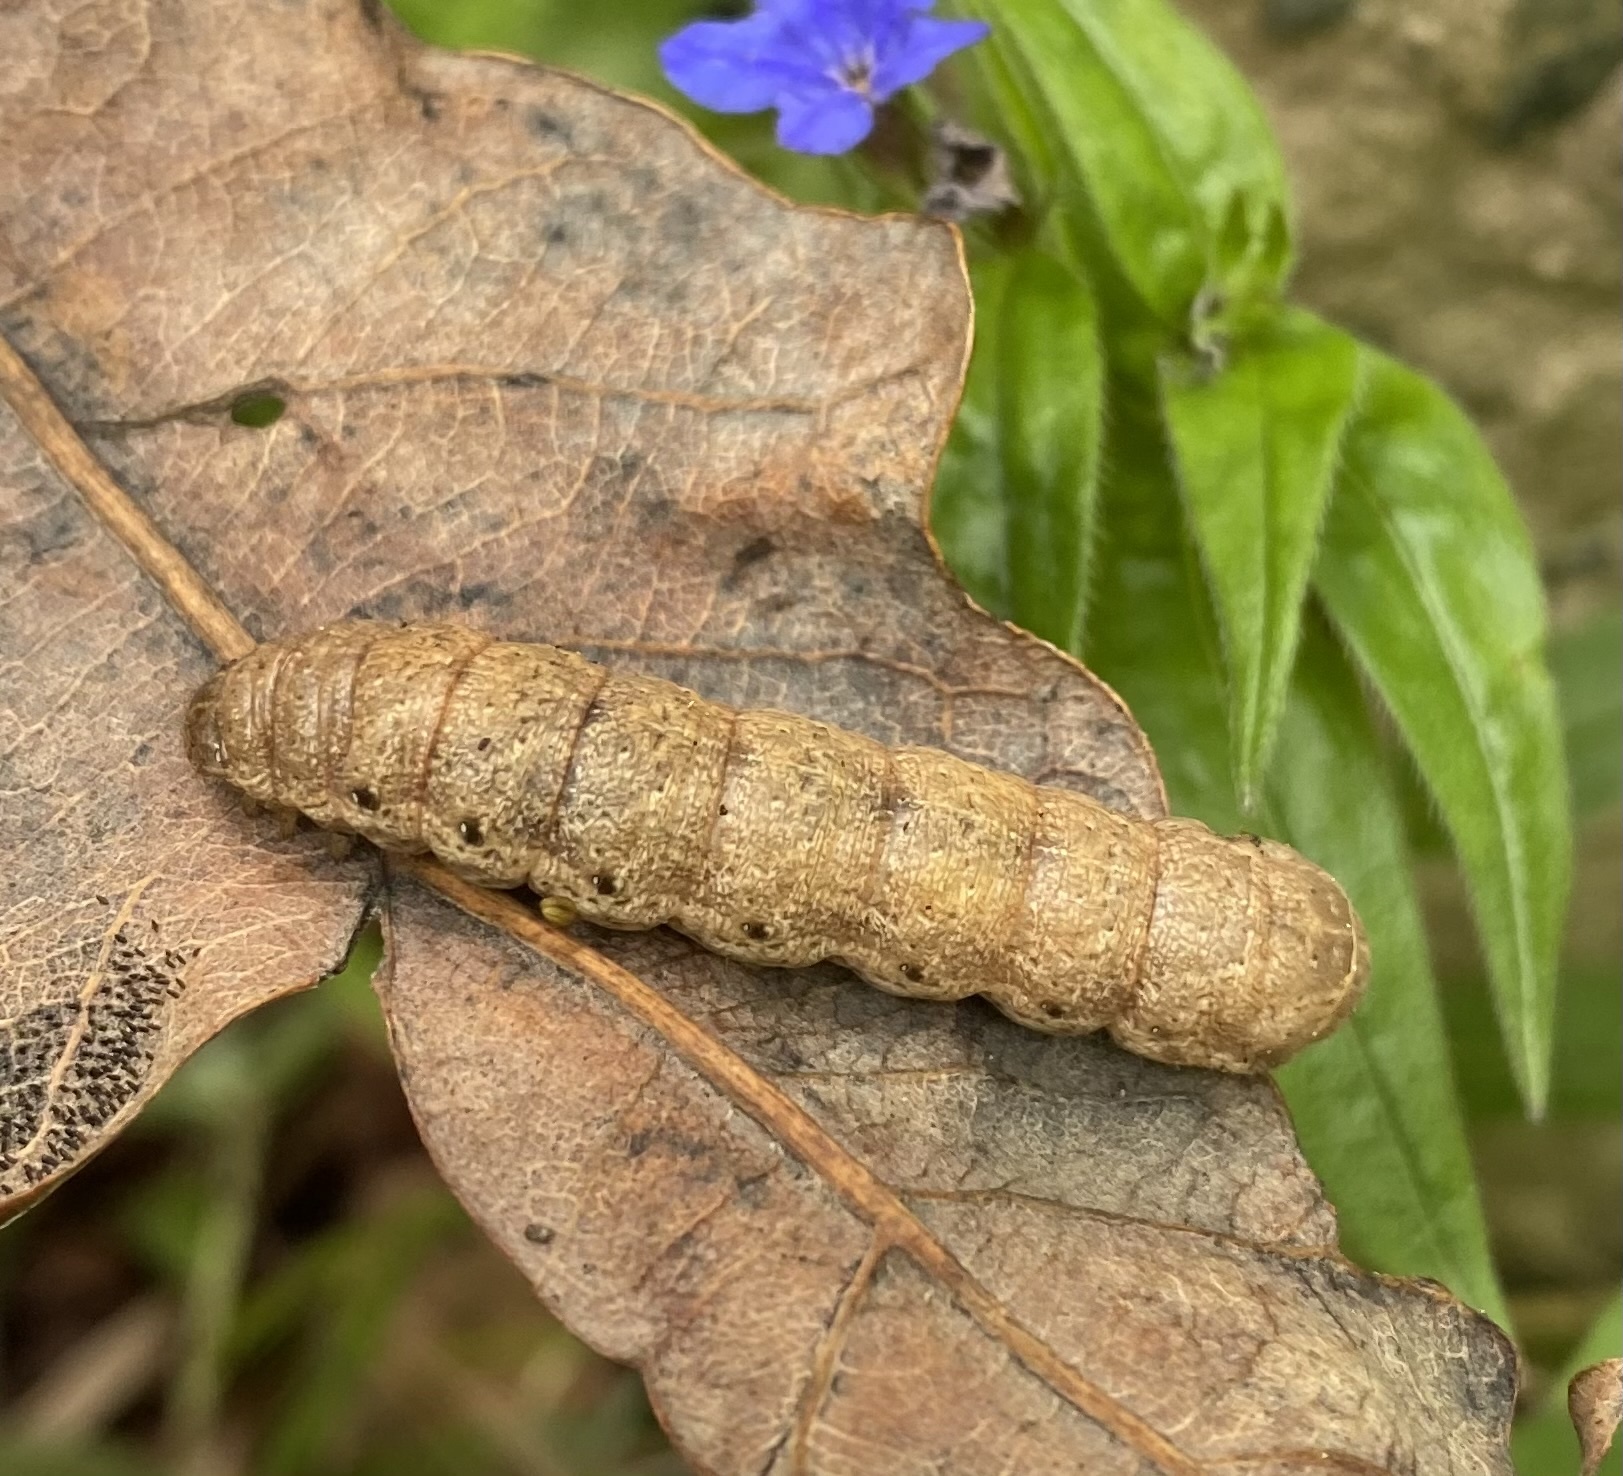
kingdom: Animalia
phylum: Arthropoda
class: Insecta
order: Lepidoptera
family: Noctuidae
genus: Noctua
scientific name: Noctua
